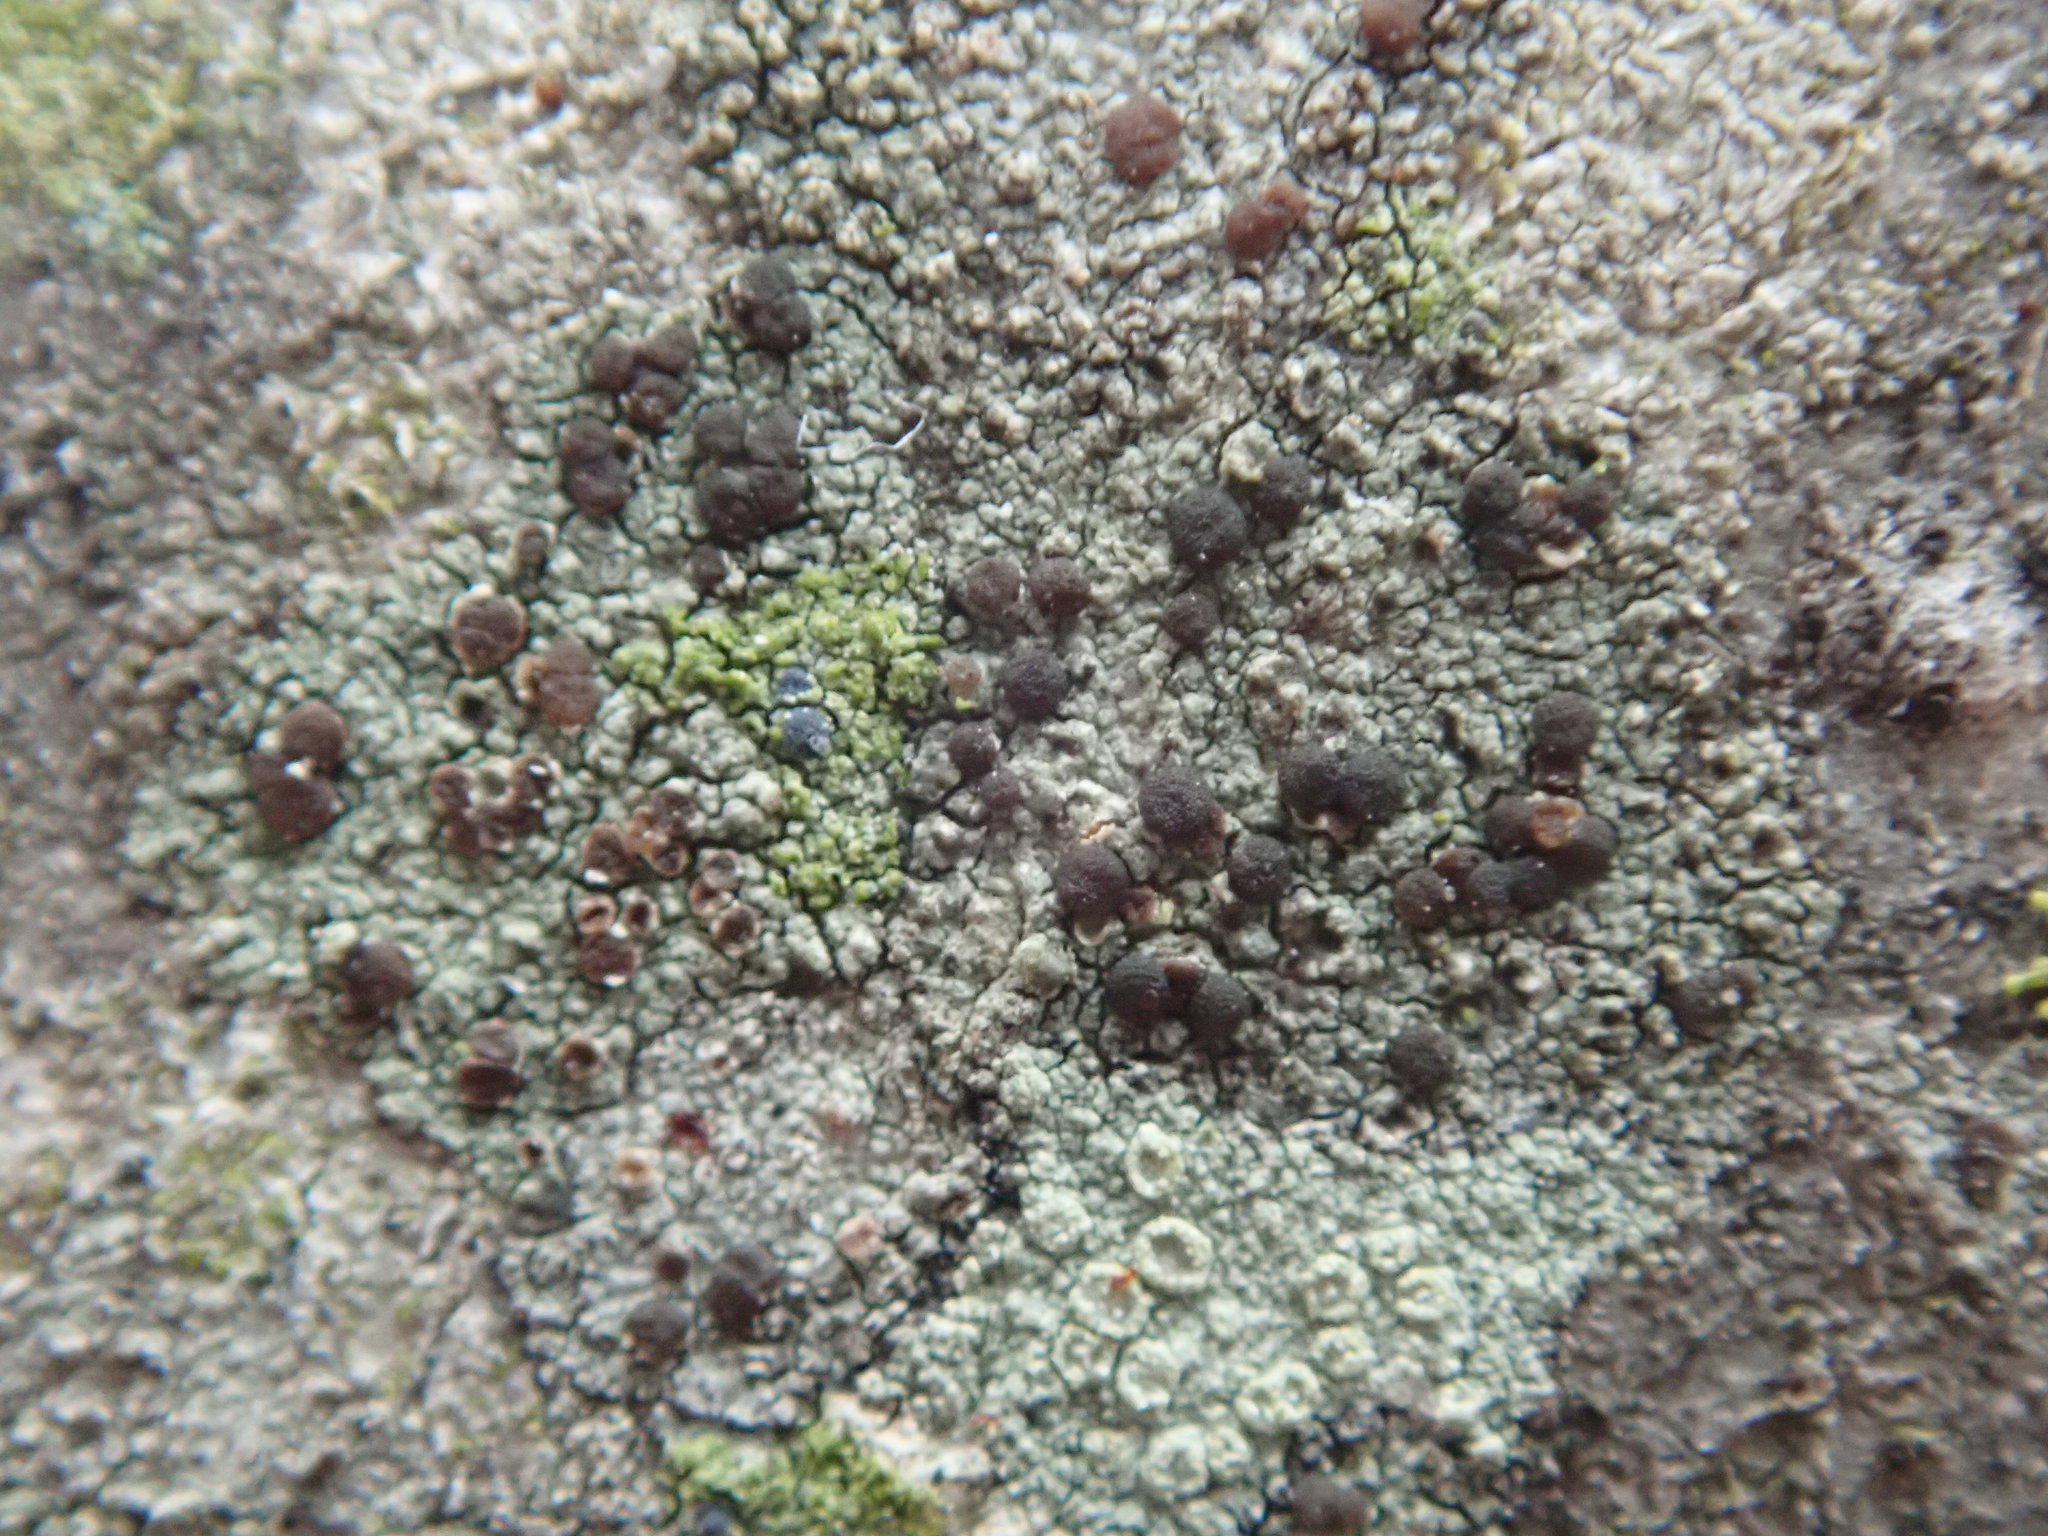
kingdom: Fungi
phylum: Ascomycota
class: Lecanoromycetes
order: Lecanorales
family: Lecanoraceae
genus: Traponora
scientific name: Traponora varians
